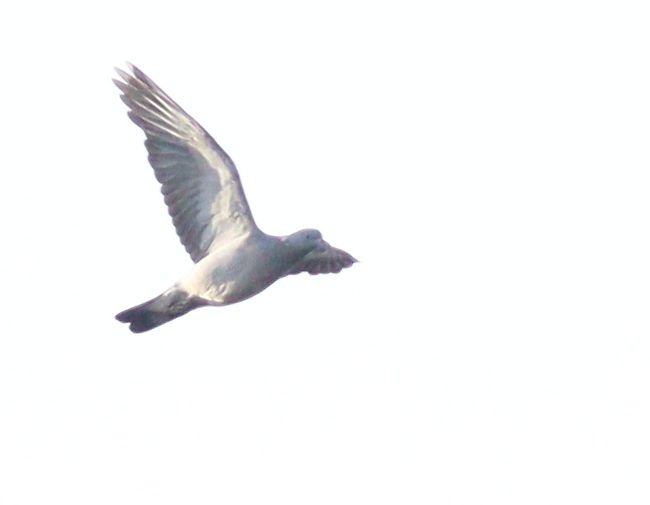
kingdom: Animalia
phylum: Chordata
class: Aves
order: Columbiformes
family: Columbidae
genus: Columba
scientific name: Columba palumbus
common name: Common wood pigeon
